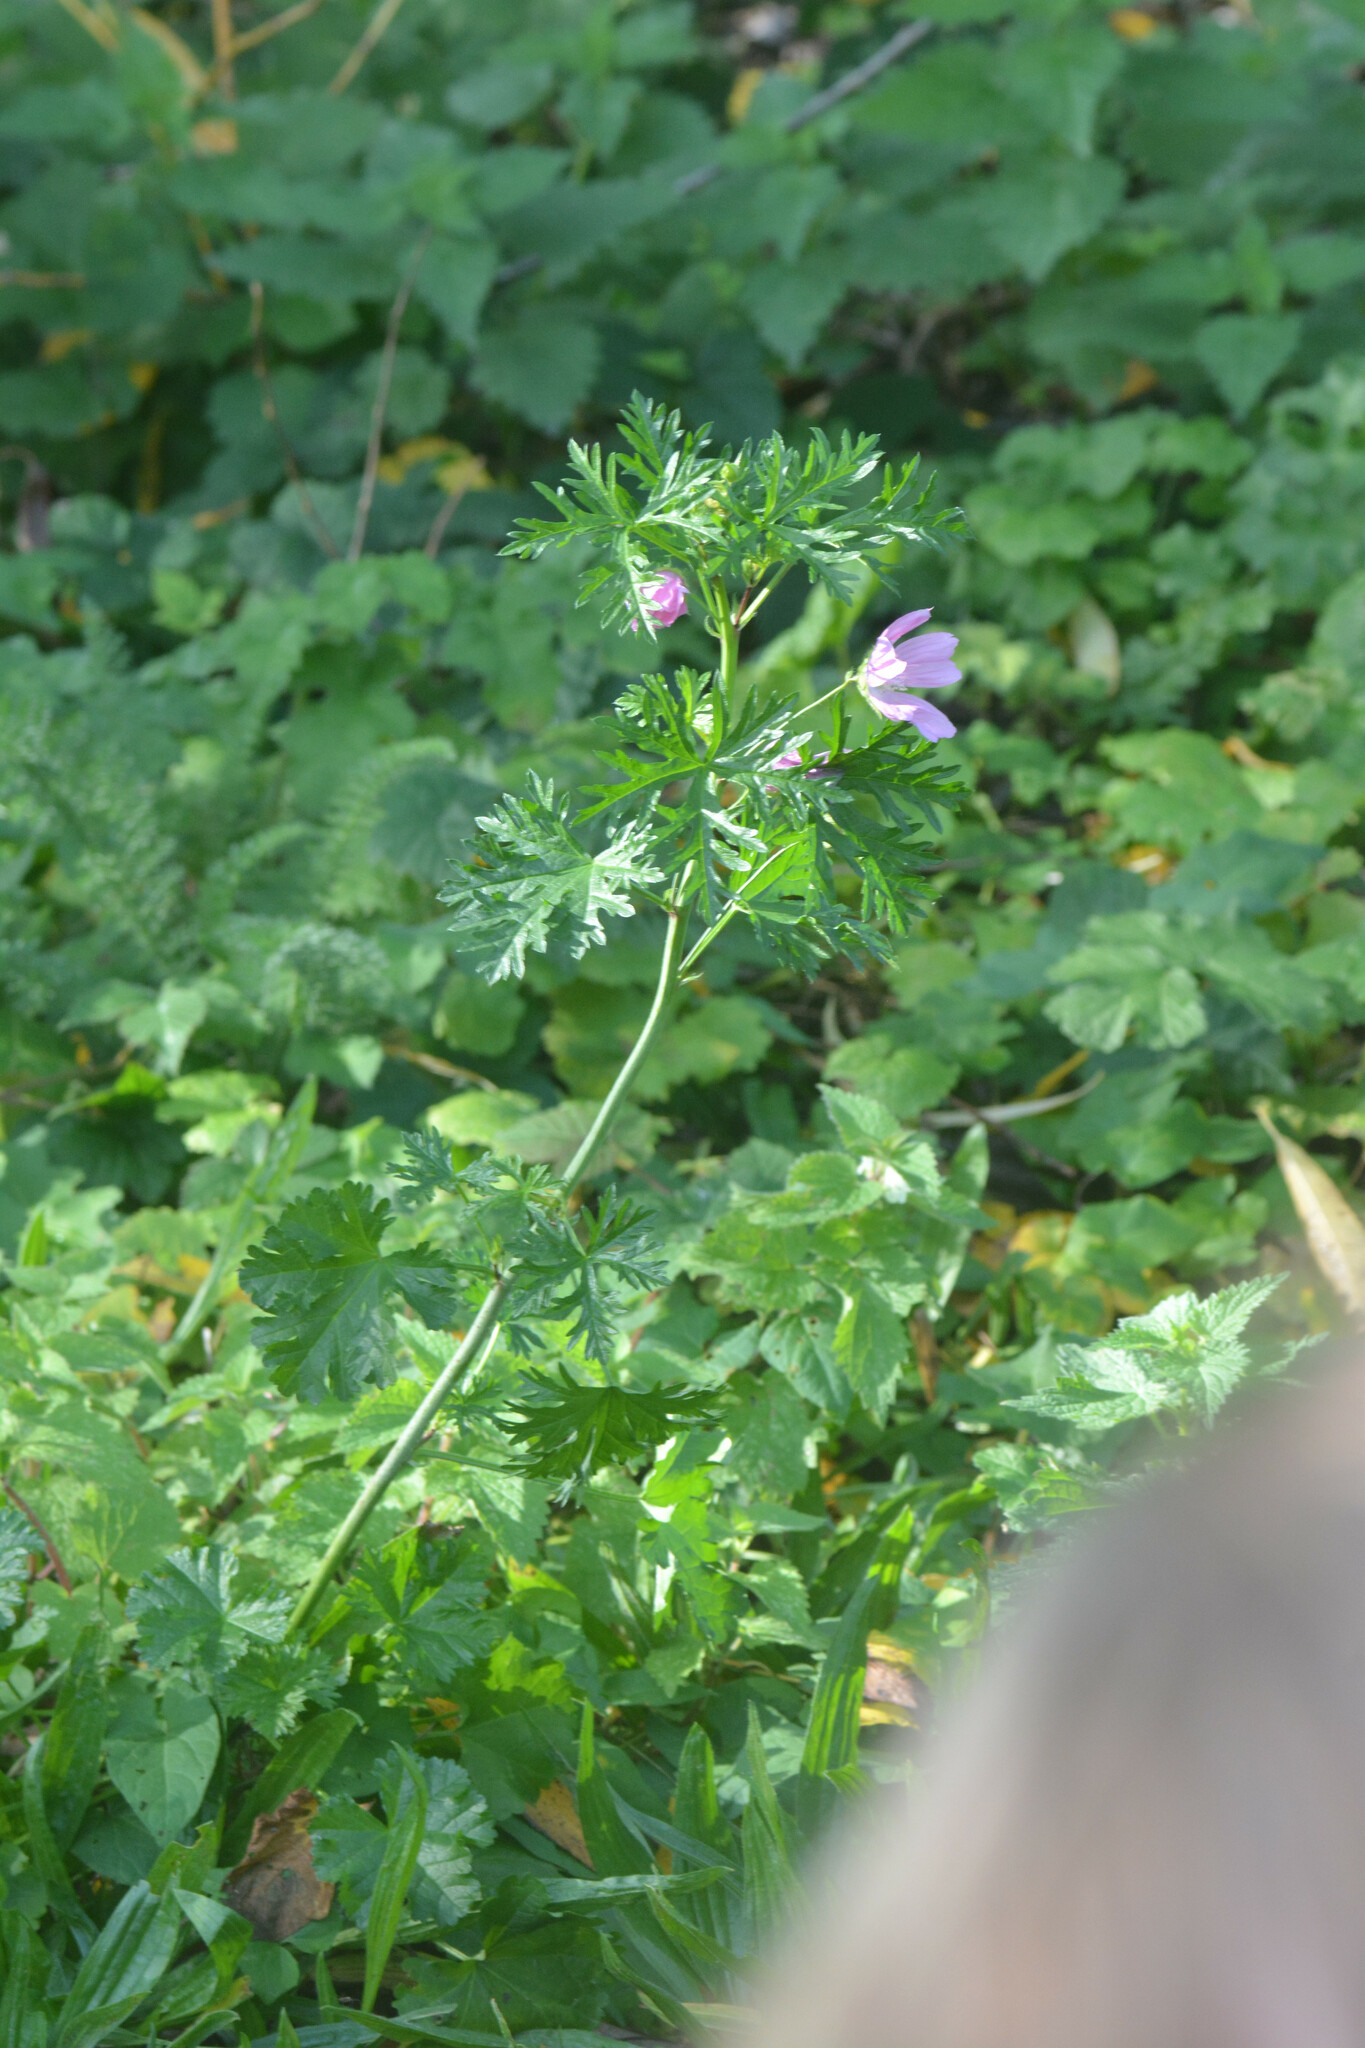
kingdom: Plantae
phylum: Tracheophyta
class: Magnoliopsida
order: Malvales
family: Malvaceae
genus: Malva
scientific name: Malva moschata
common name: Musk mallow
